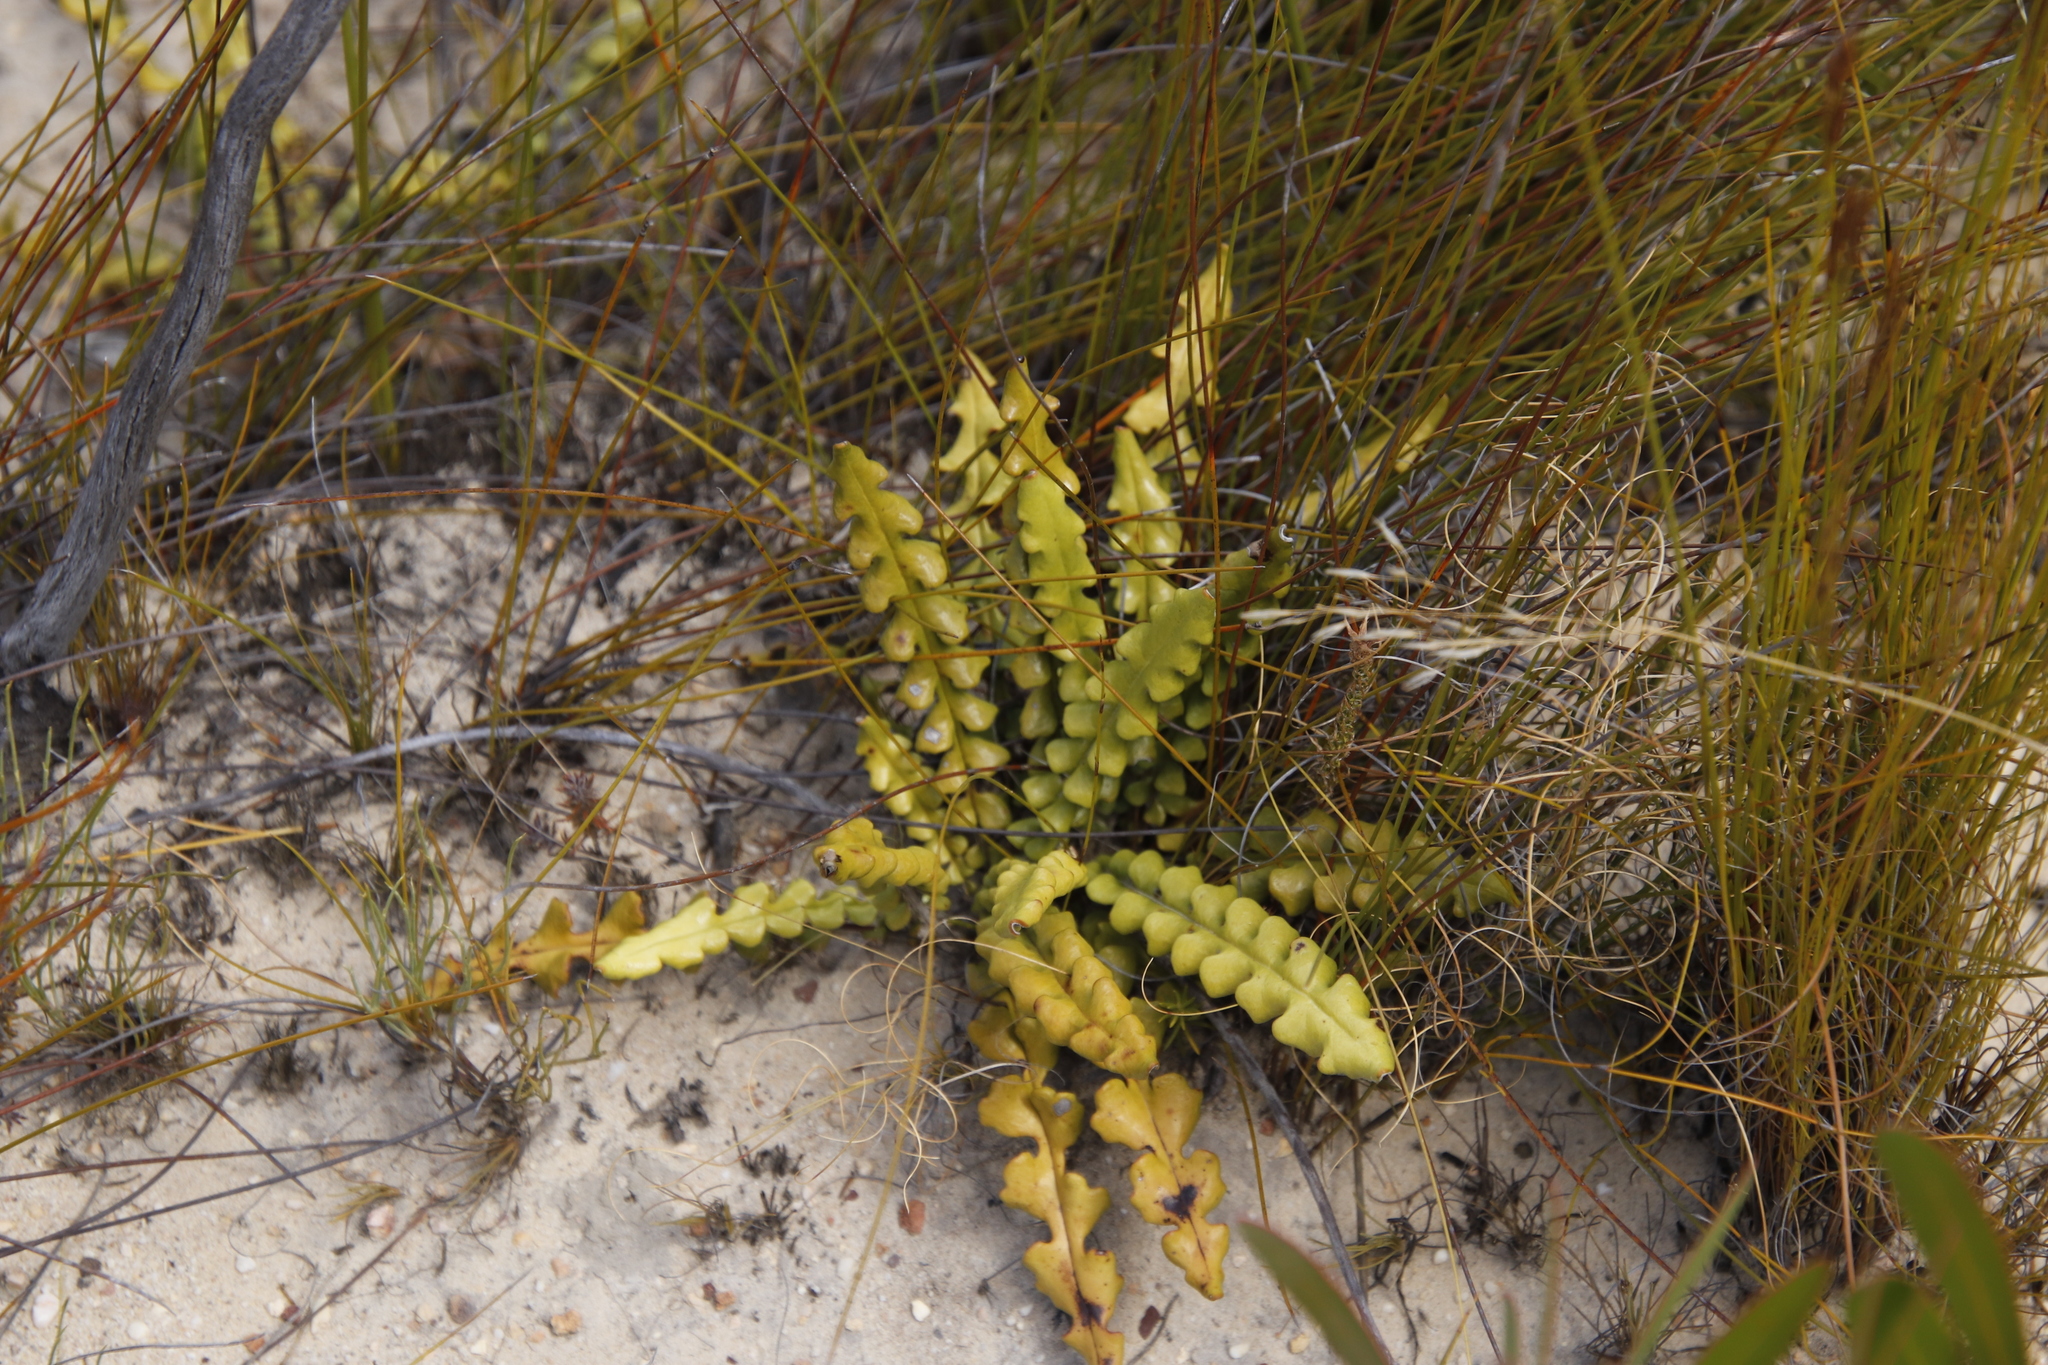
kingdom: Plantae
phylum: Tracheophyta
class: Magnoliopsida
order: Asterales
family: Asteraceae
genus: Gerbera
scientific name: Gerbera linnaei
